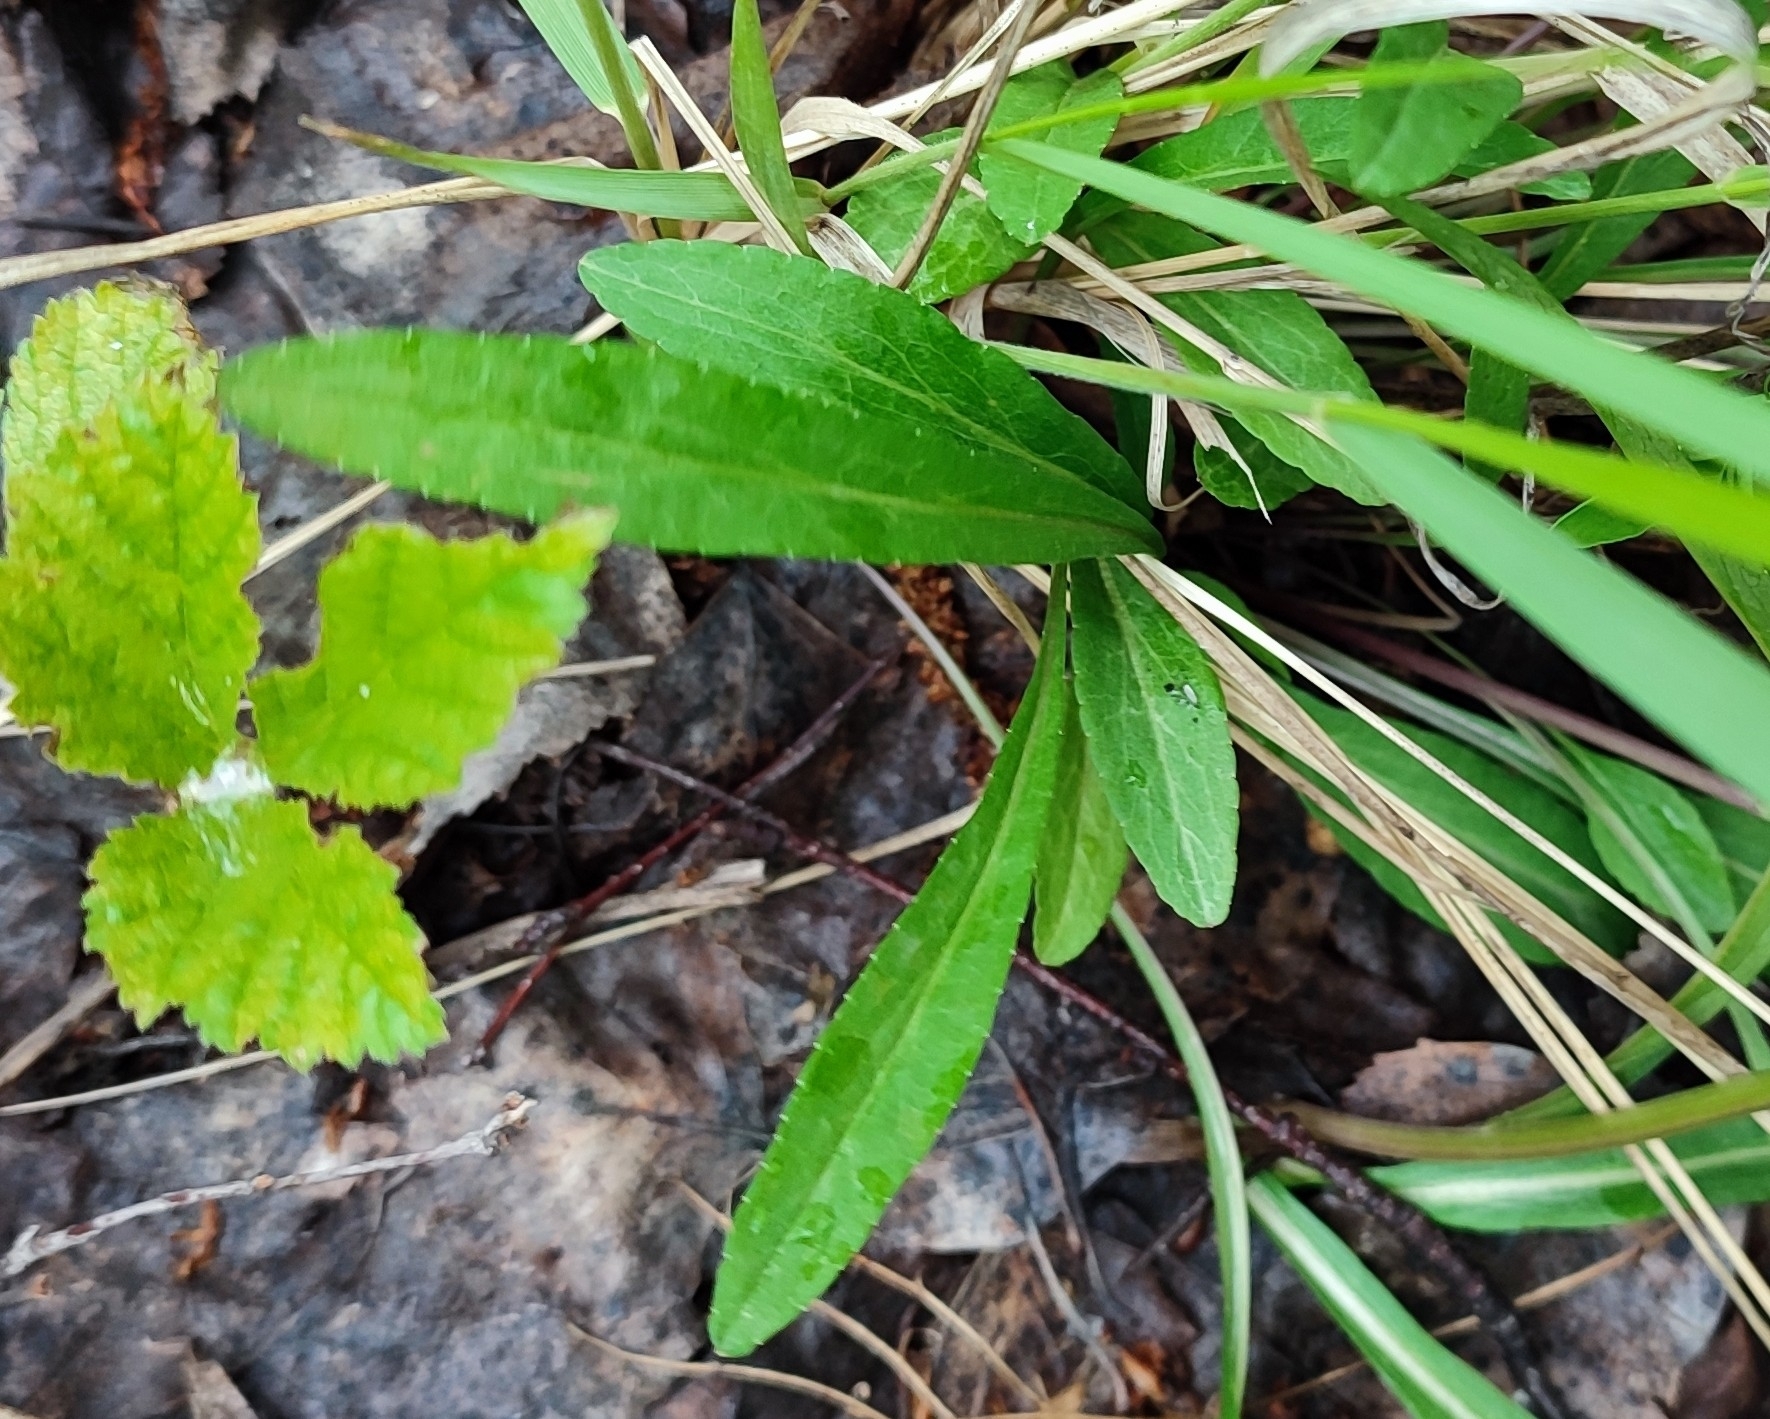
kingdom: Plantae
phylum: Tracheophyta
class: Magnoliopsida
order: Asterales
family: Campanulaceae
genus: Campanula
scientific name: Campanula stevenii
